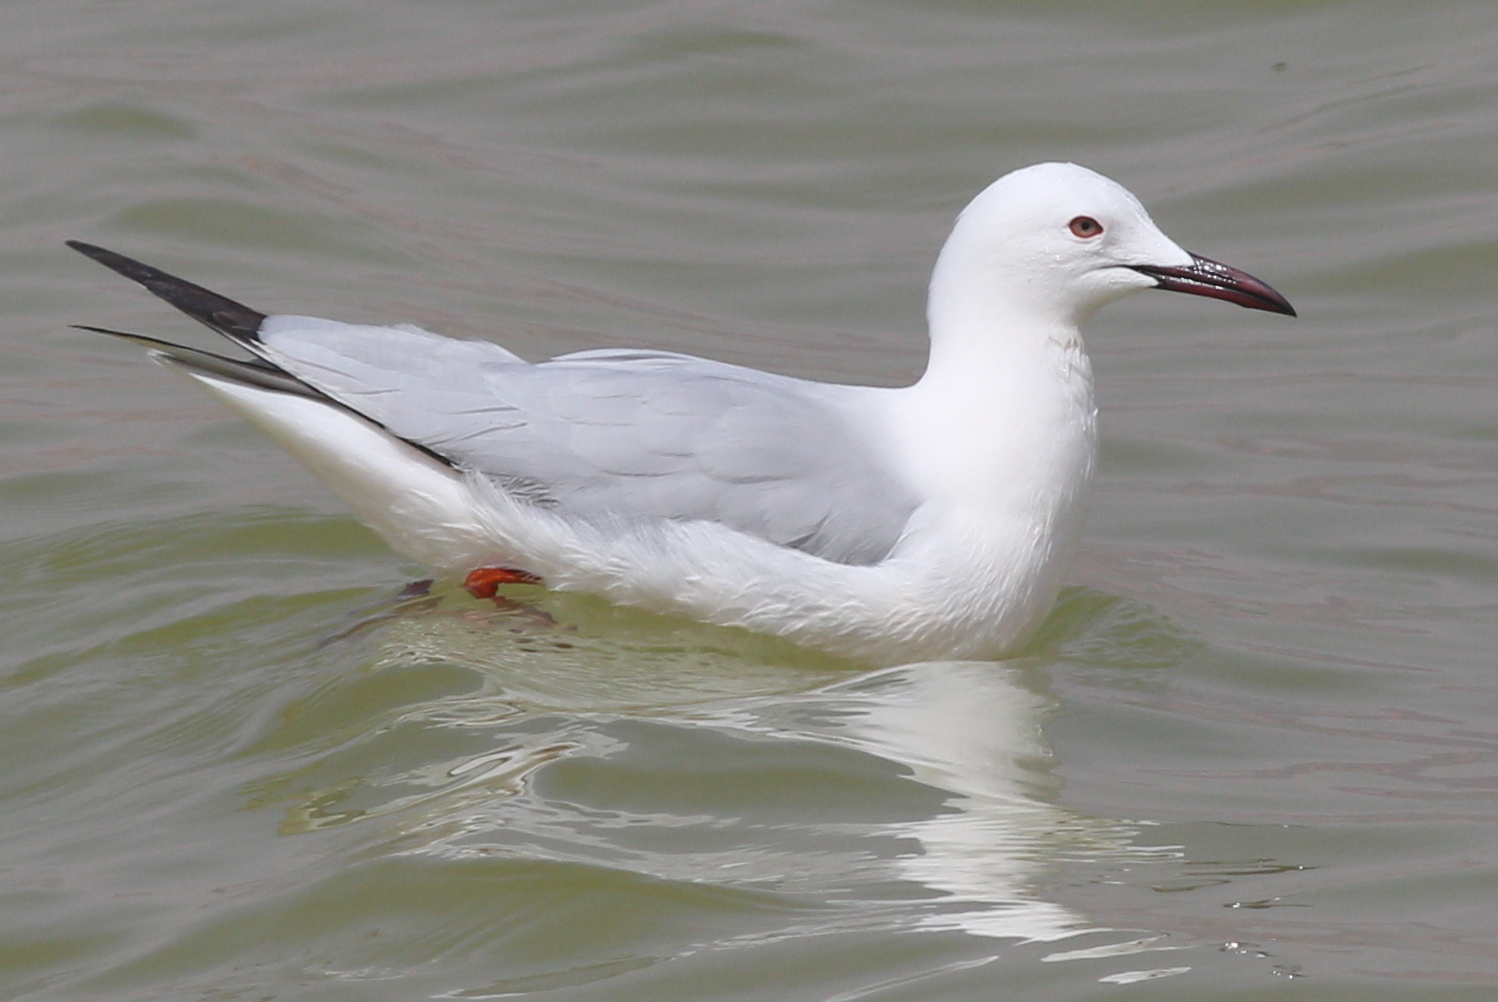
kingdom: Animalia
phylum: Chordata
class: Aves
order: Charadriiformes
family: Laridae
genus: Chroicocephalus
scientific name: Chroicocephalus genei
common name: Slender-billed gull
